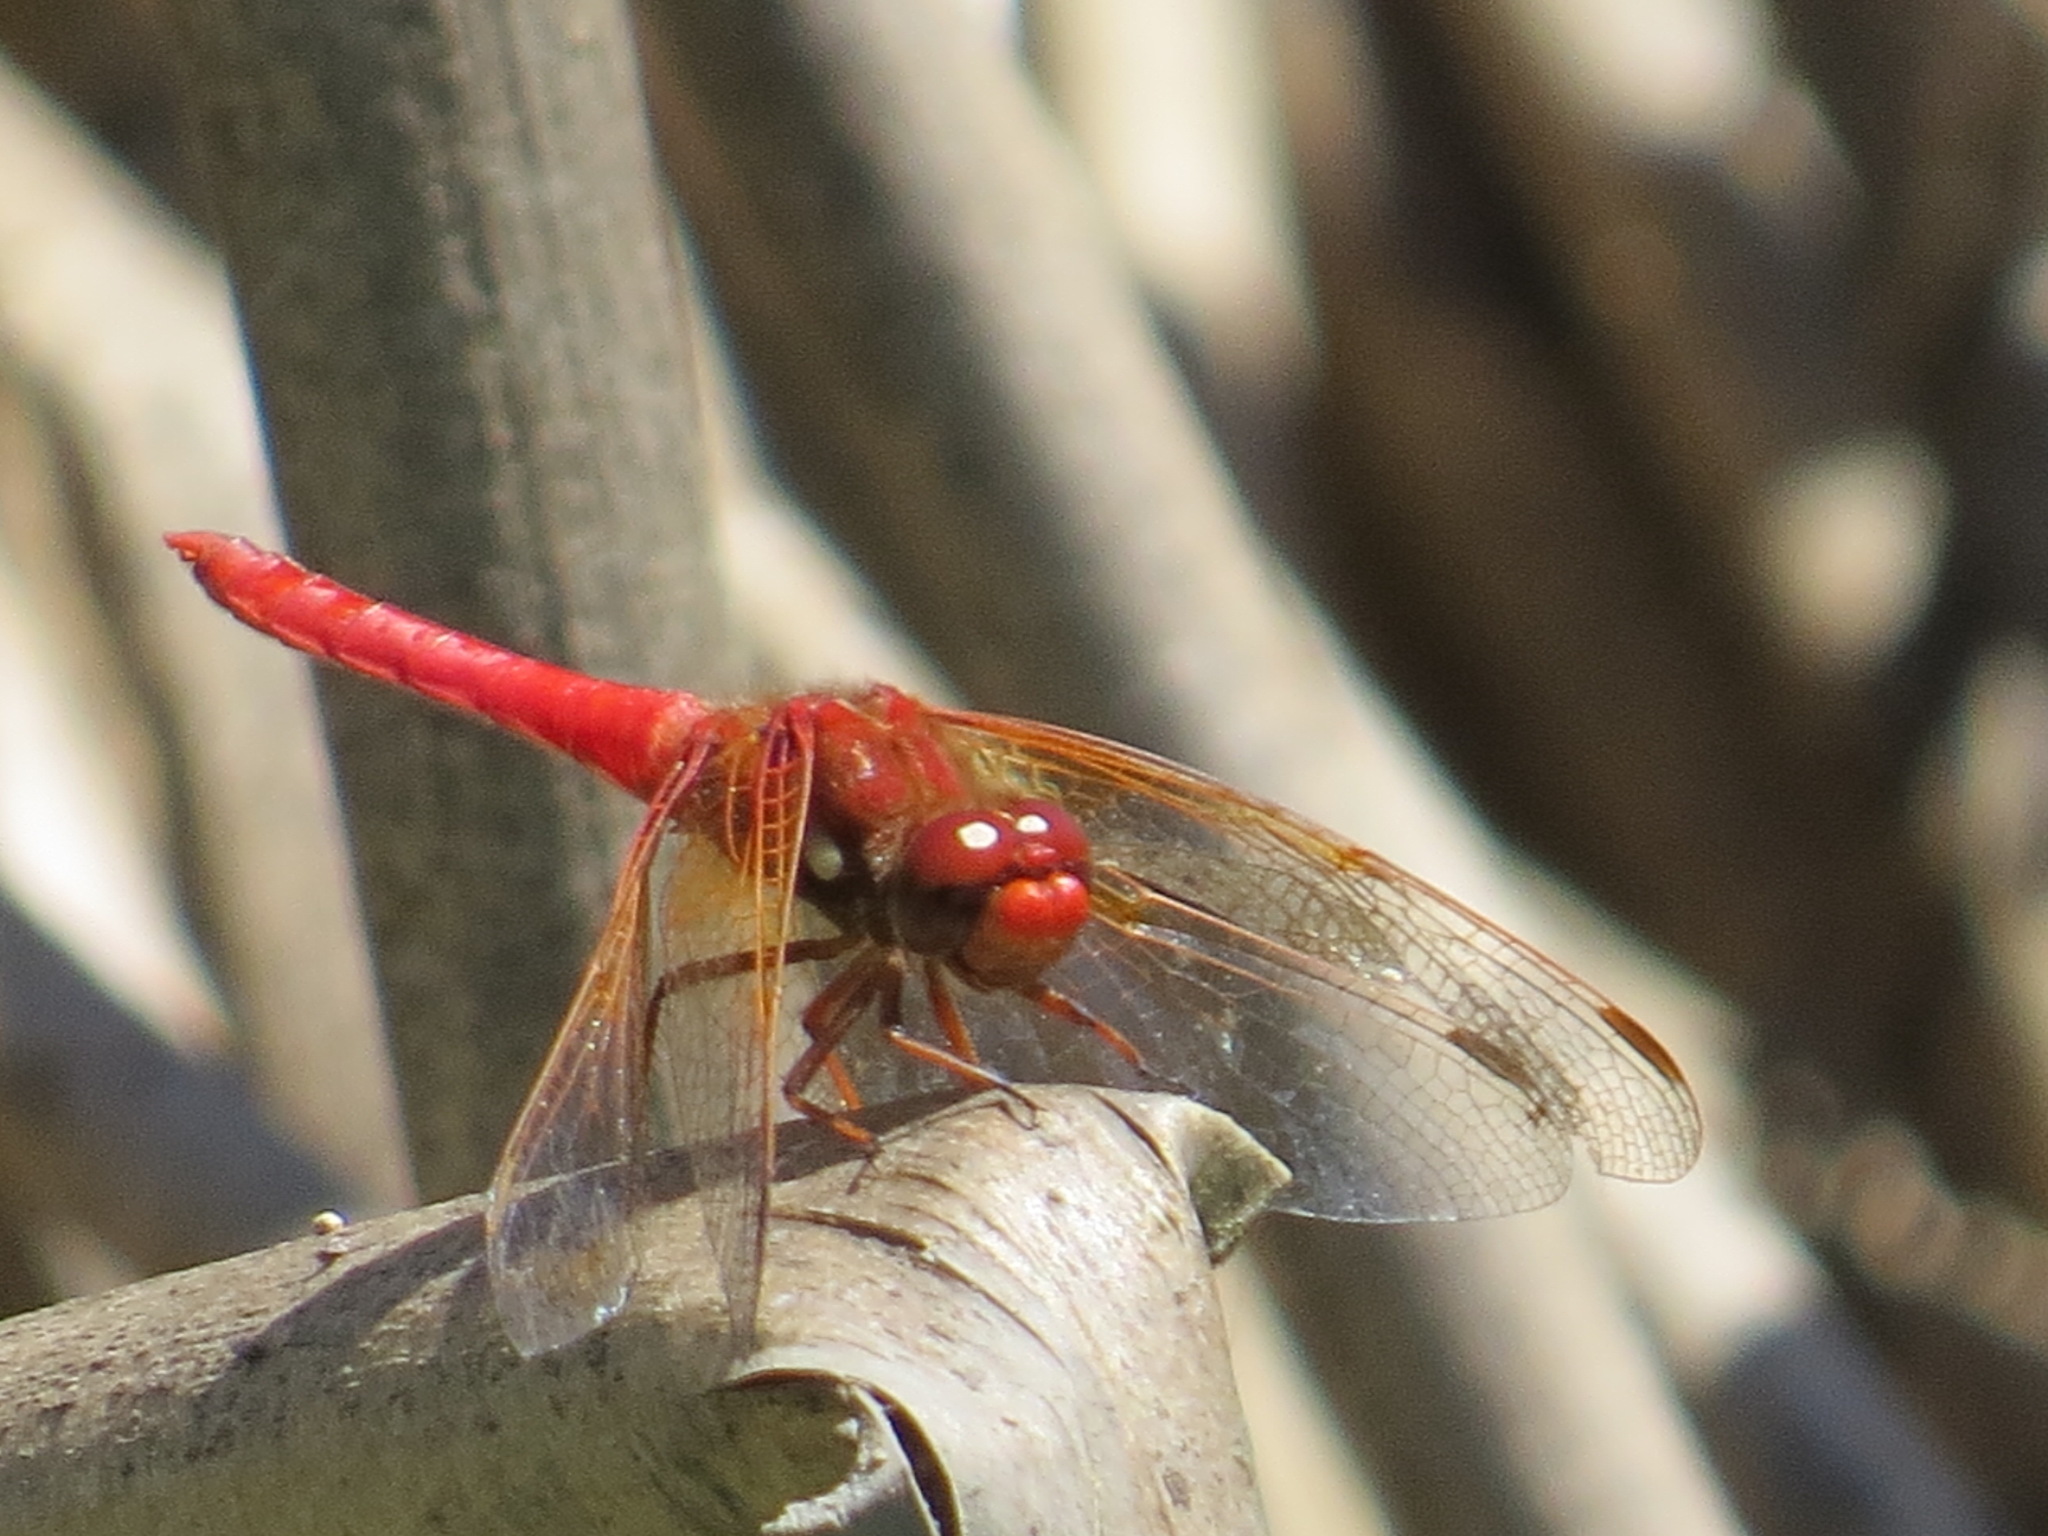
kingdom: Animalia
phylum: Arthropoda
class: Insecta
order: Odonata
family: Libellulidae
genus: Sympetrum
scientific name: Sympetrum illotum
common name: Cardinal meadowhawk
